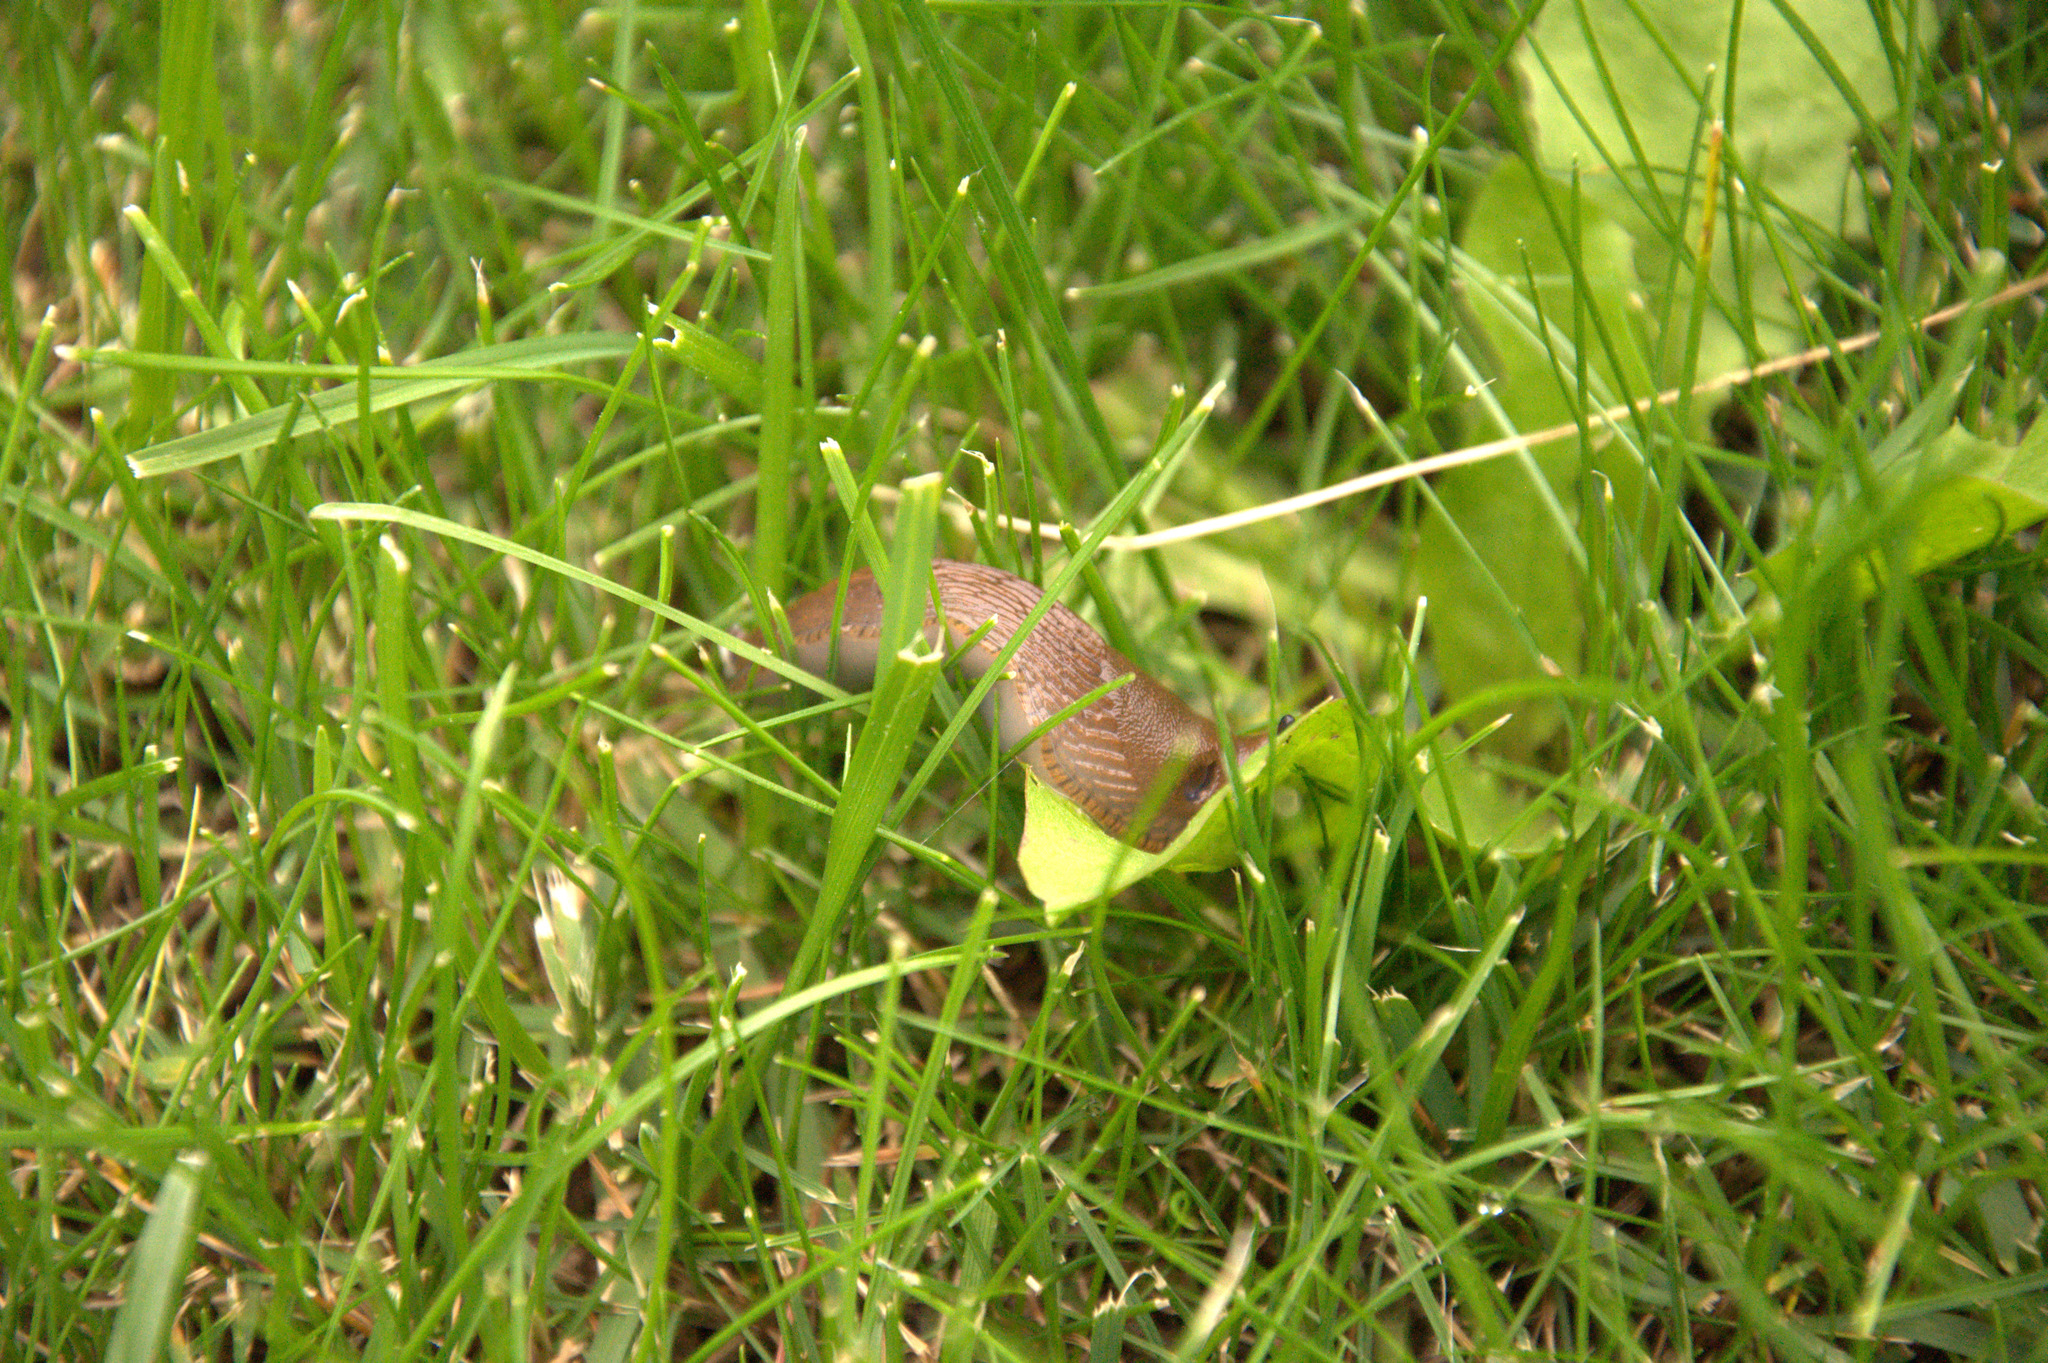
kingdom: Animalia
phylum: Mollusca
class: Gastropoda
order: Stylommatophora
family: Arionidae
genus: Arion
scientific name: Arion vulgaris
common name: Lusitanian slug
